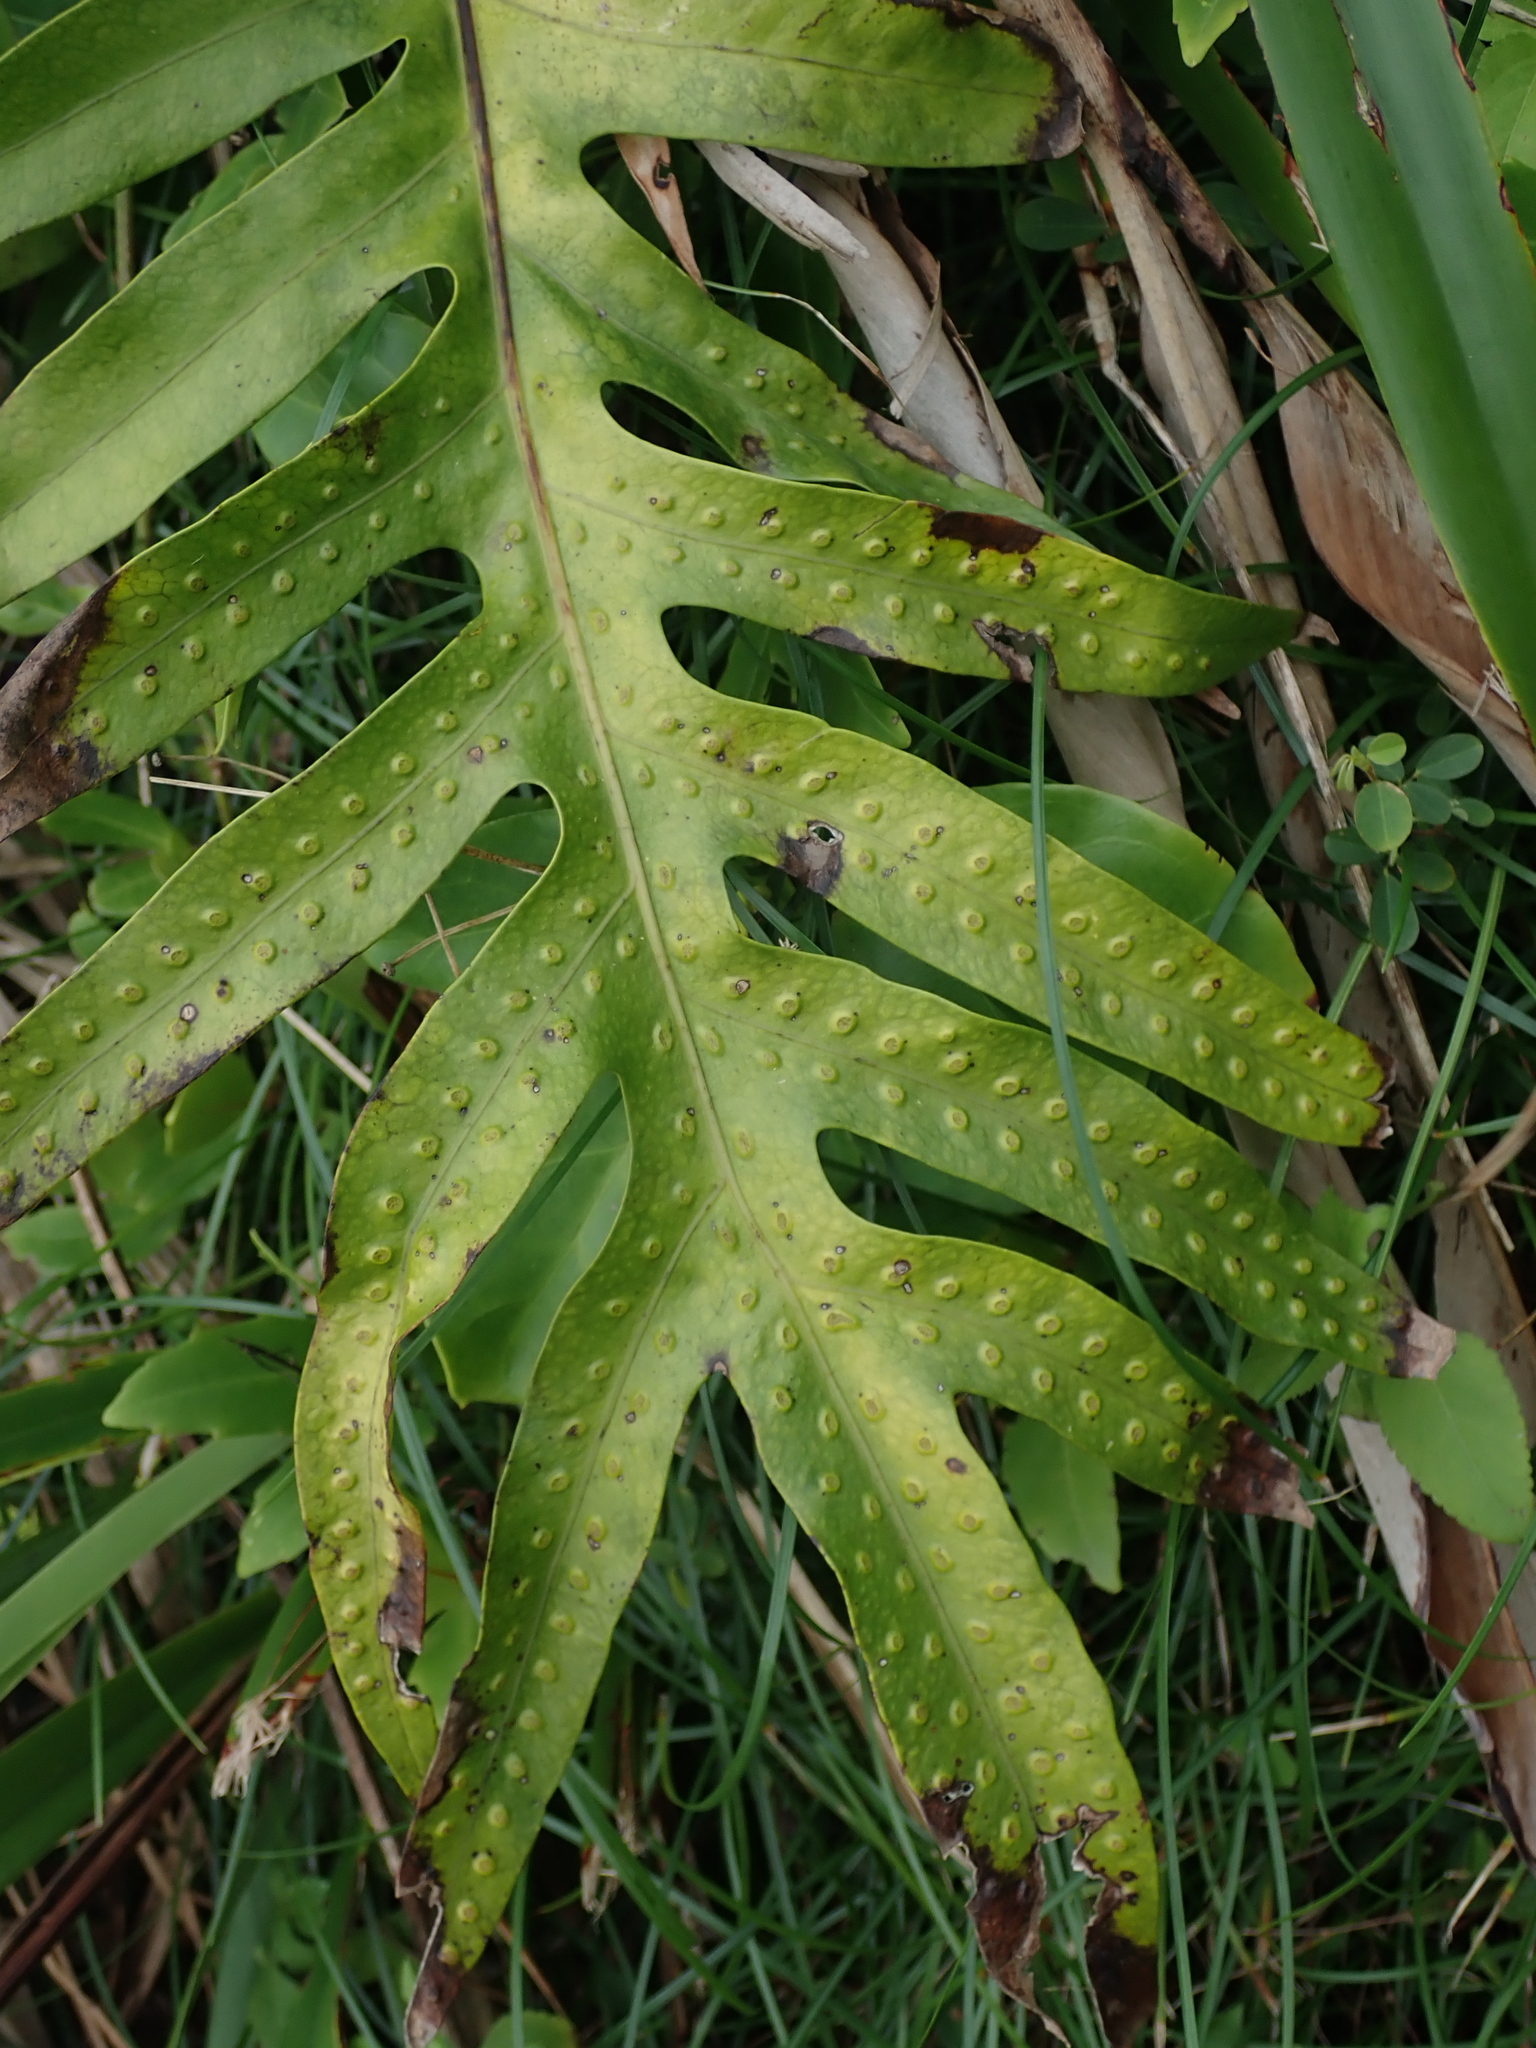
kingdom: Plantae
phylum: Tracheophyta
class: Polypodiopsida
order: Polypodiales
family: Polypodiaceae
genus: Microsorum
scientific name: Microsorum scolopendria
